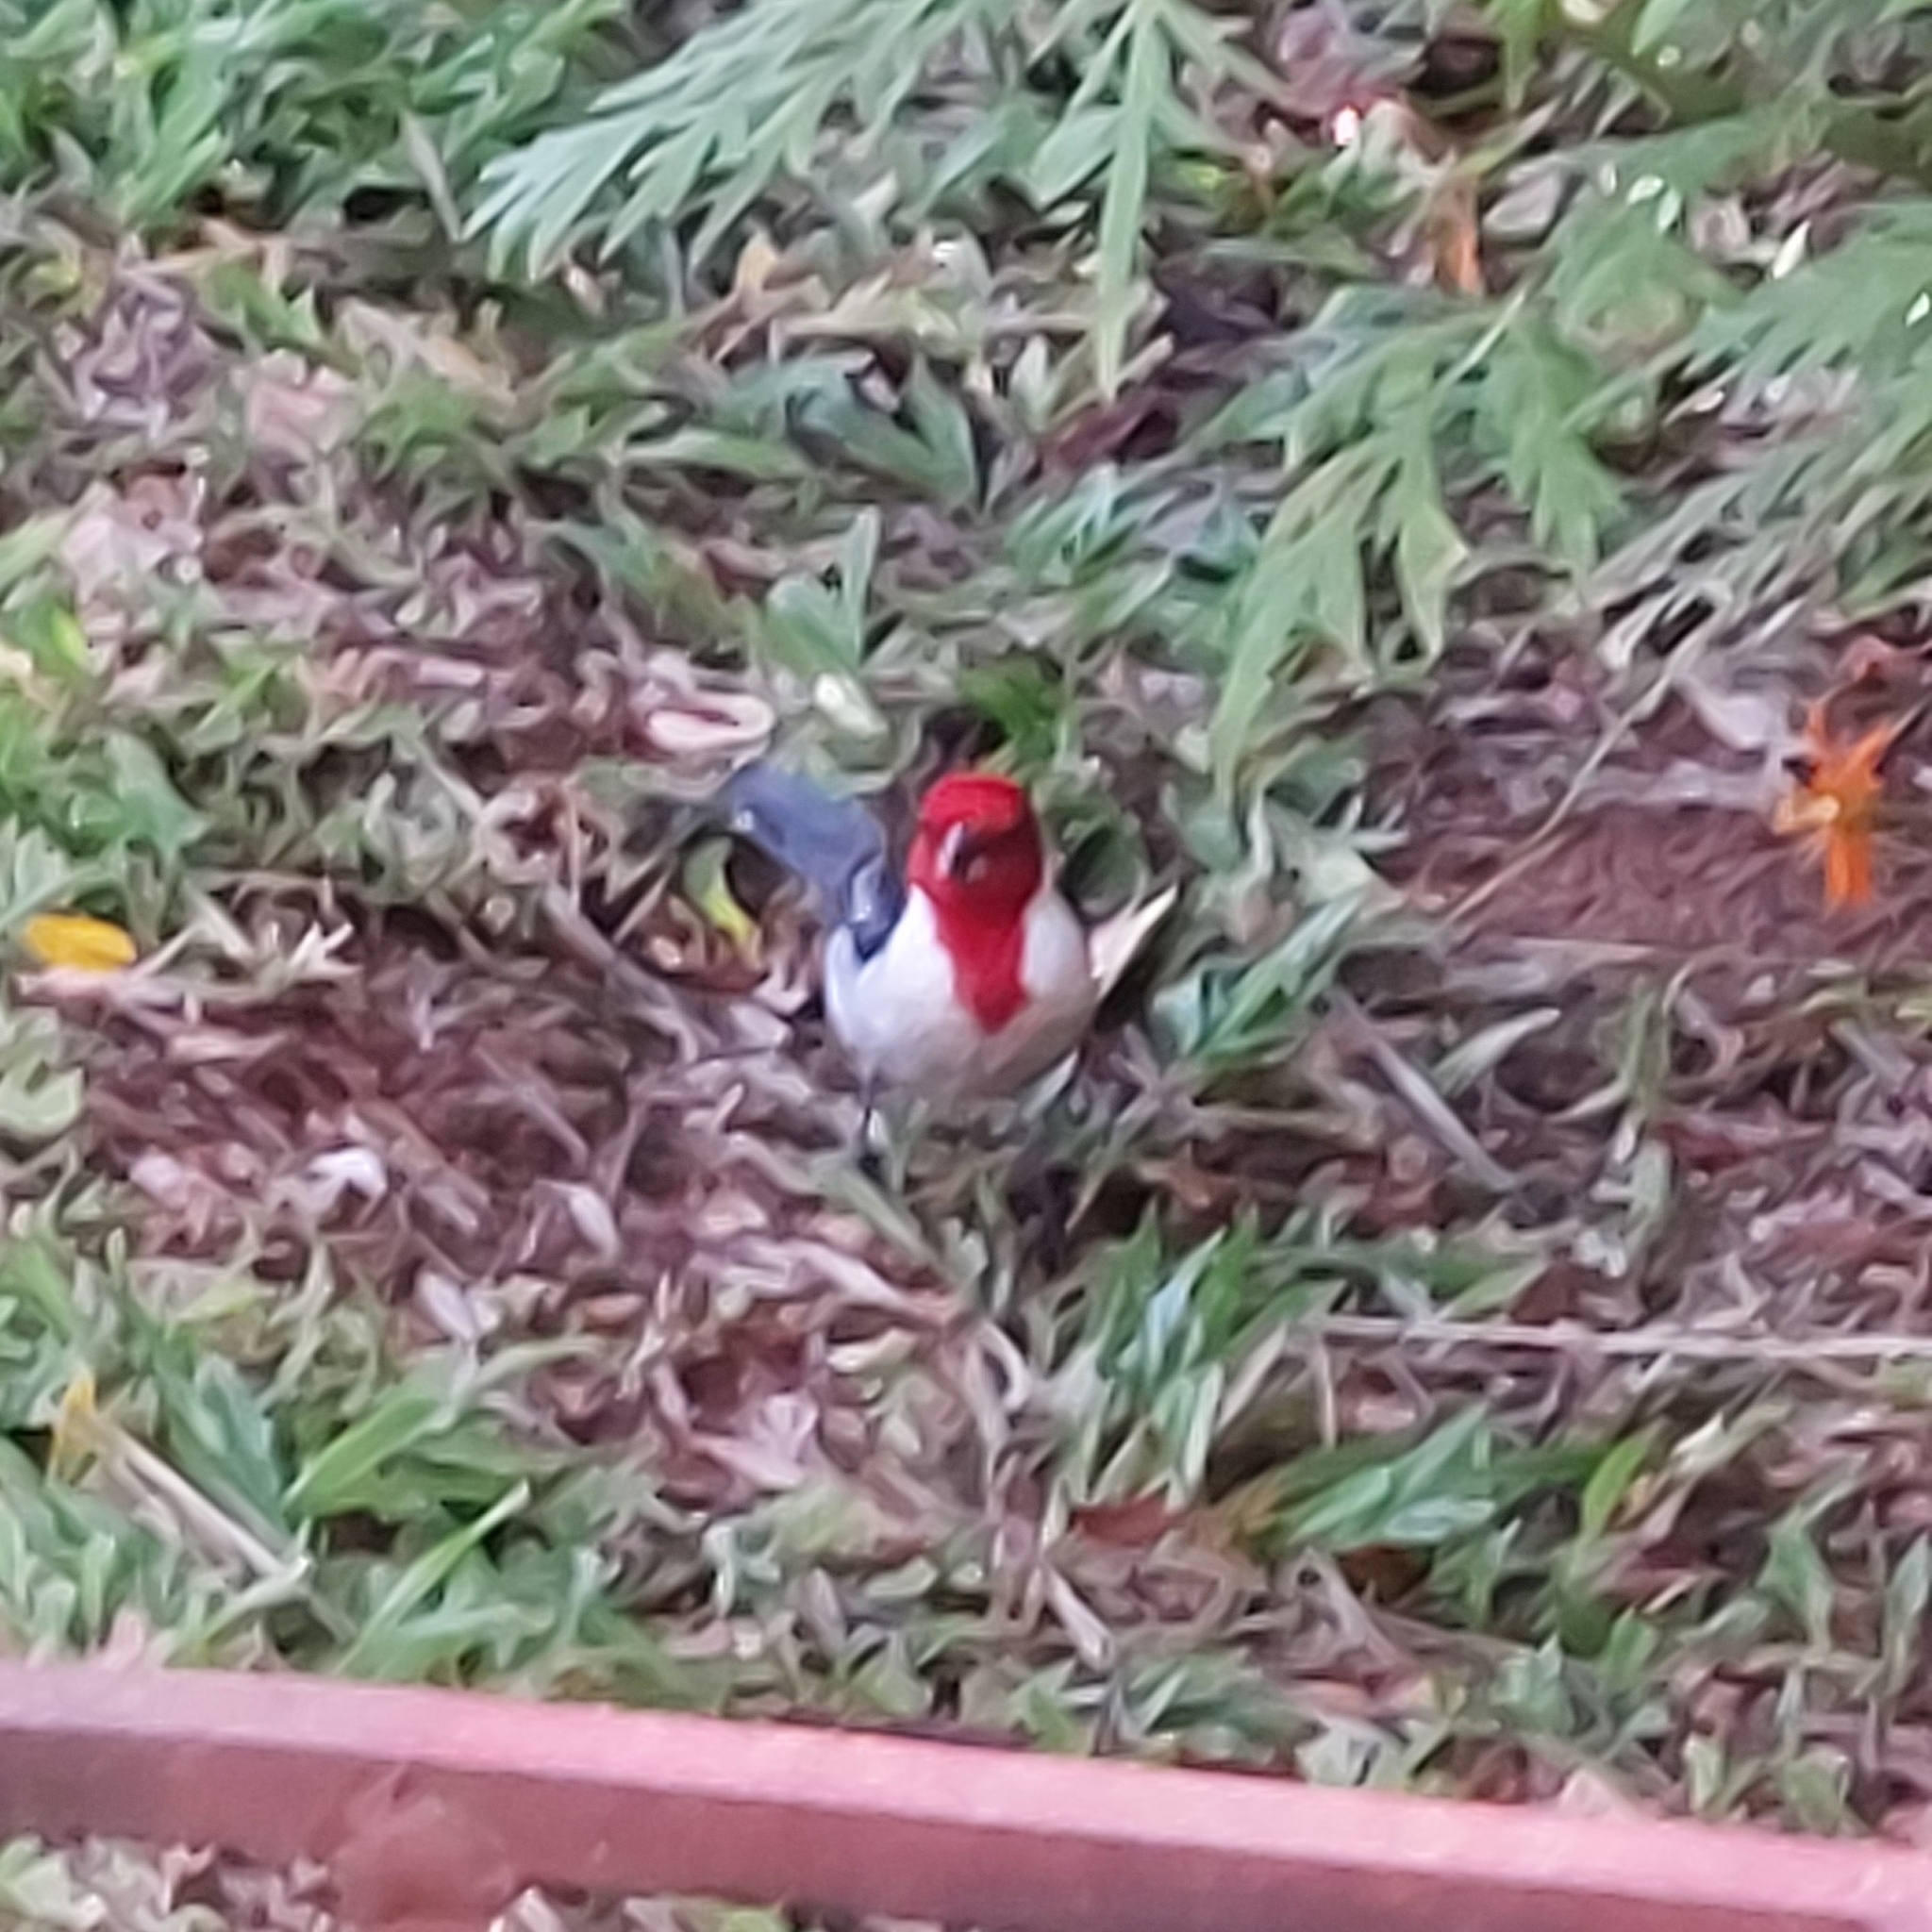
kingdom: Animalia
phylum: Chordata
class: Aves
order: Passeriformes
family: Thraupidae
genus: Paroaria
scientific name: Paroaria dominicana
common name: Red-cowled cardinal
